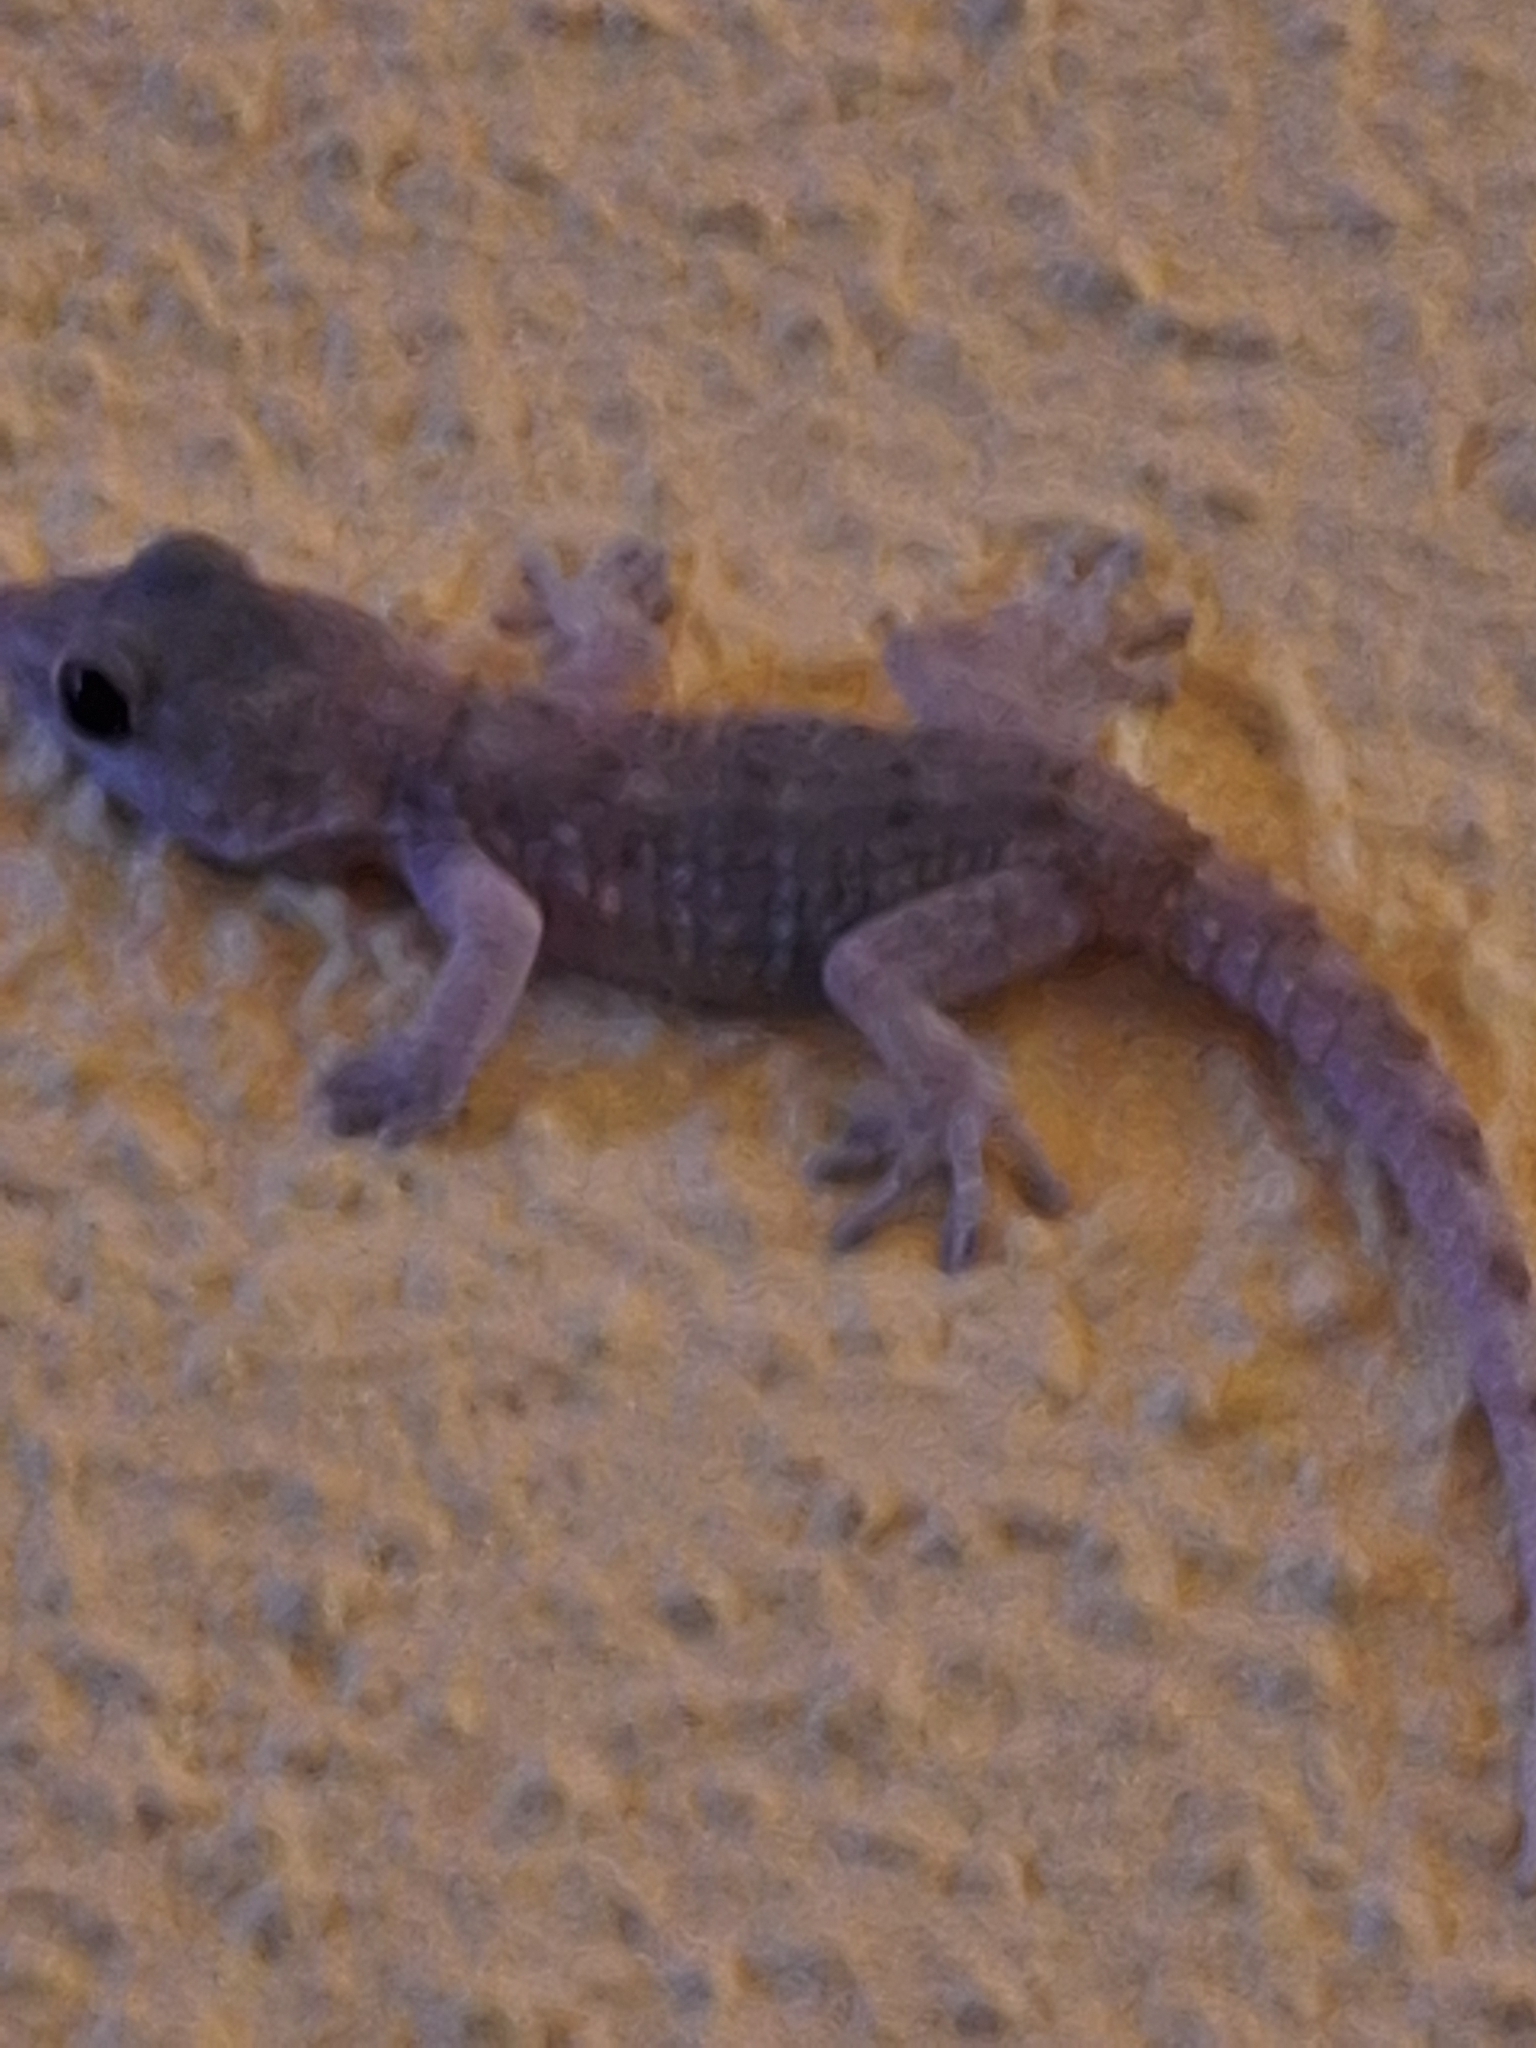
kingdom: Animalia
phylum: Chordata
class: Squamata
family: Phyllodactylidae
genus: Tarentola
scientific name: Tarentola delalandii
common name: Tenerife wall gecko
